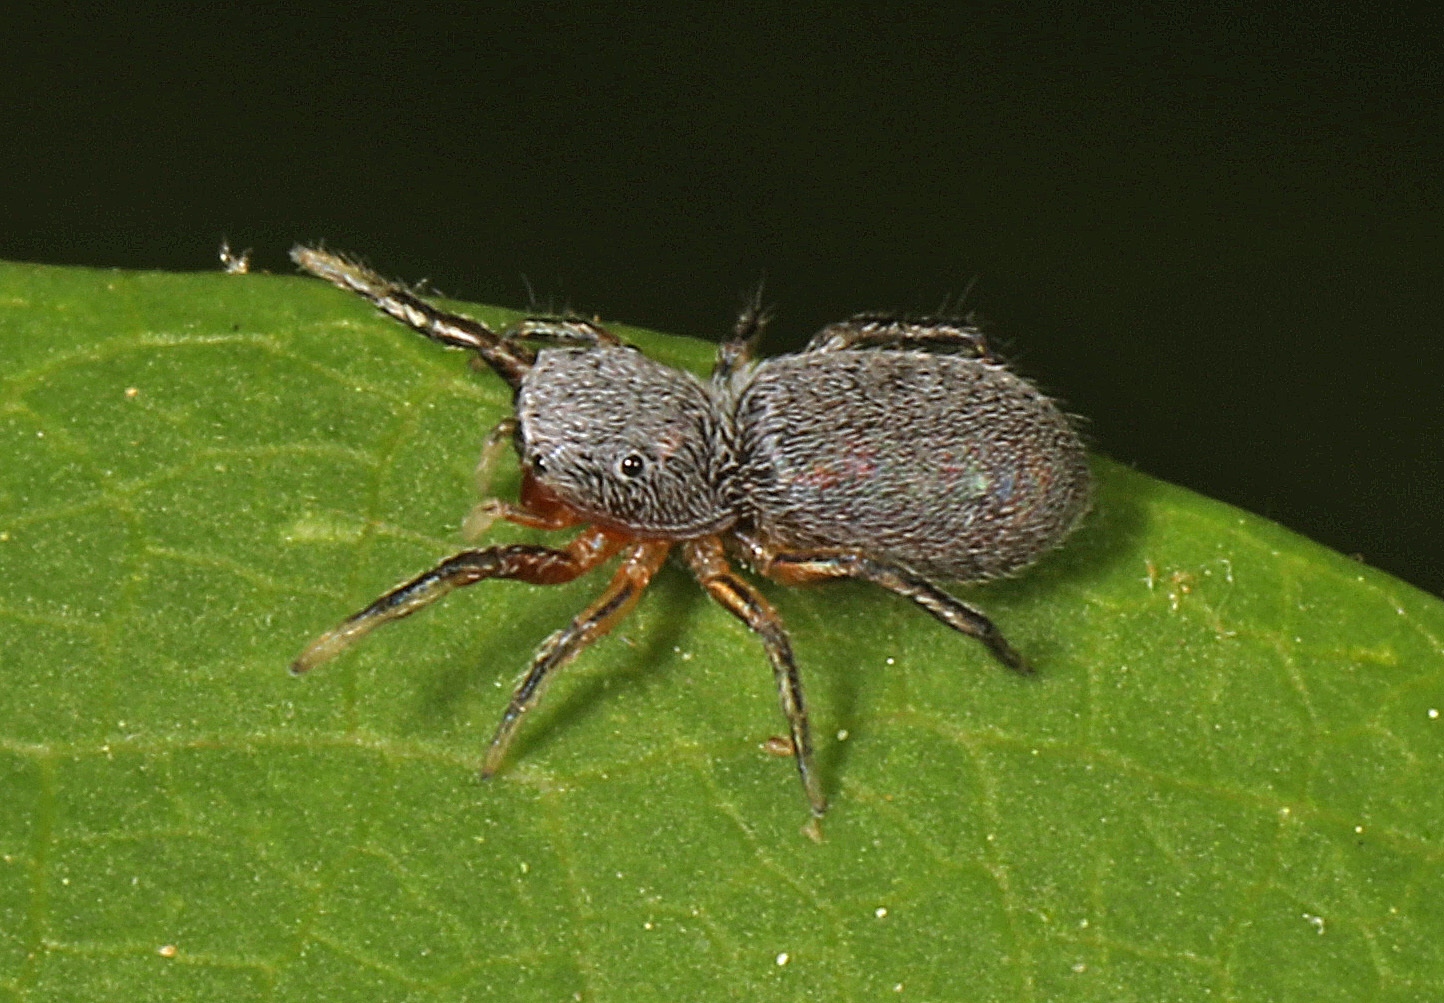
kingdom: Animalia
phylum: Arthropoda
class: Arachnida
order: Araneae
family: Salticidae
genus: Tutelina
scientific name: Tutelina similis
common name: Thick-spined jumping spider
